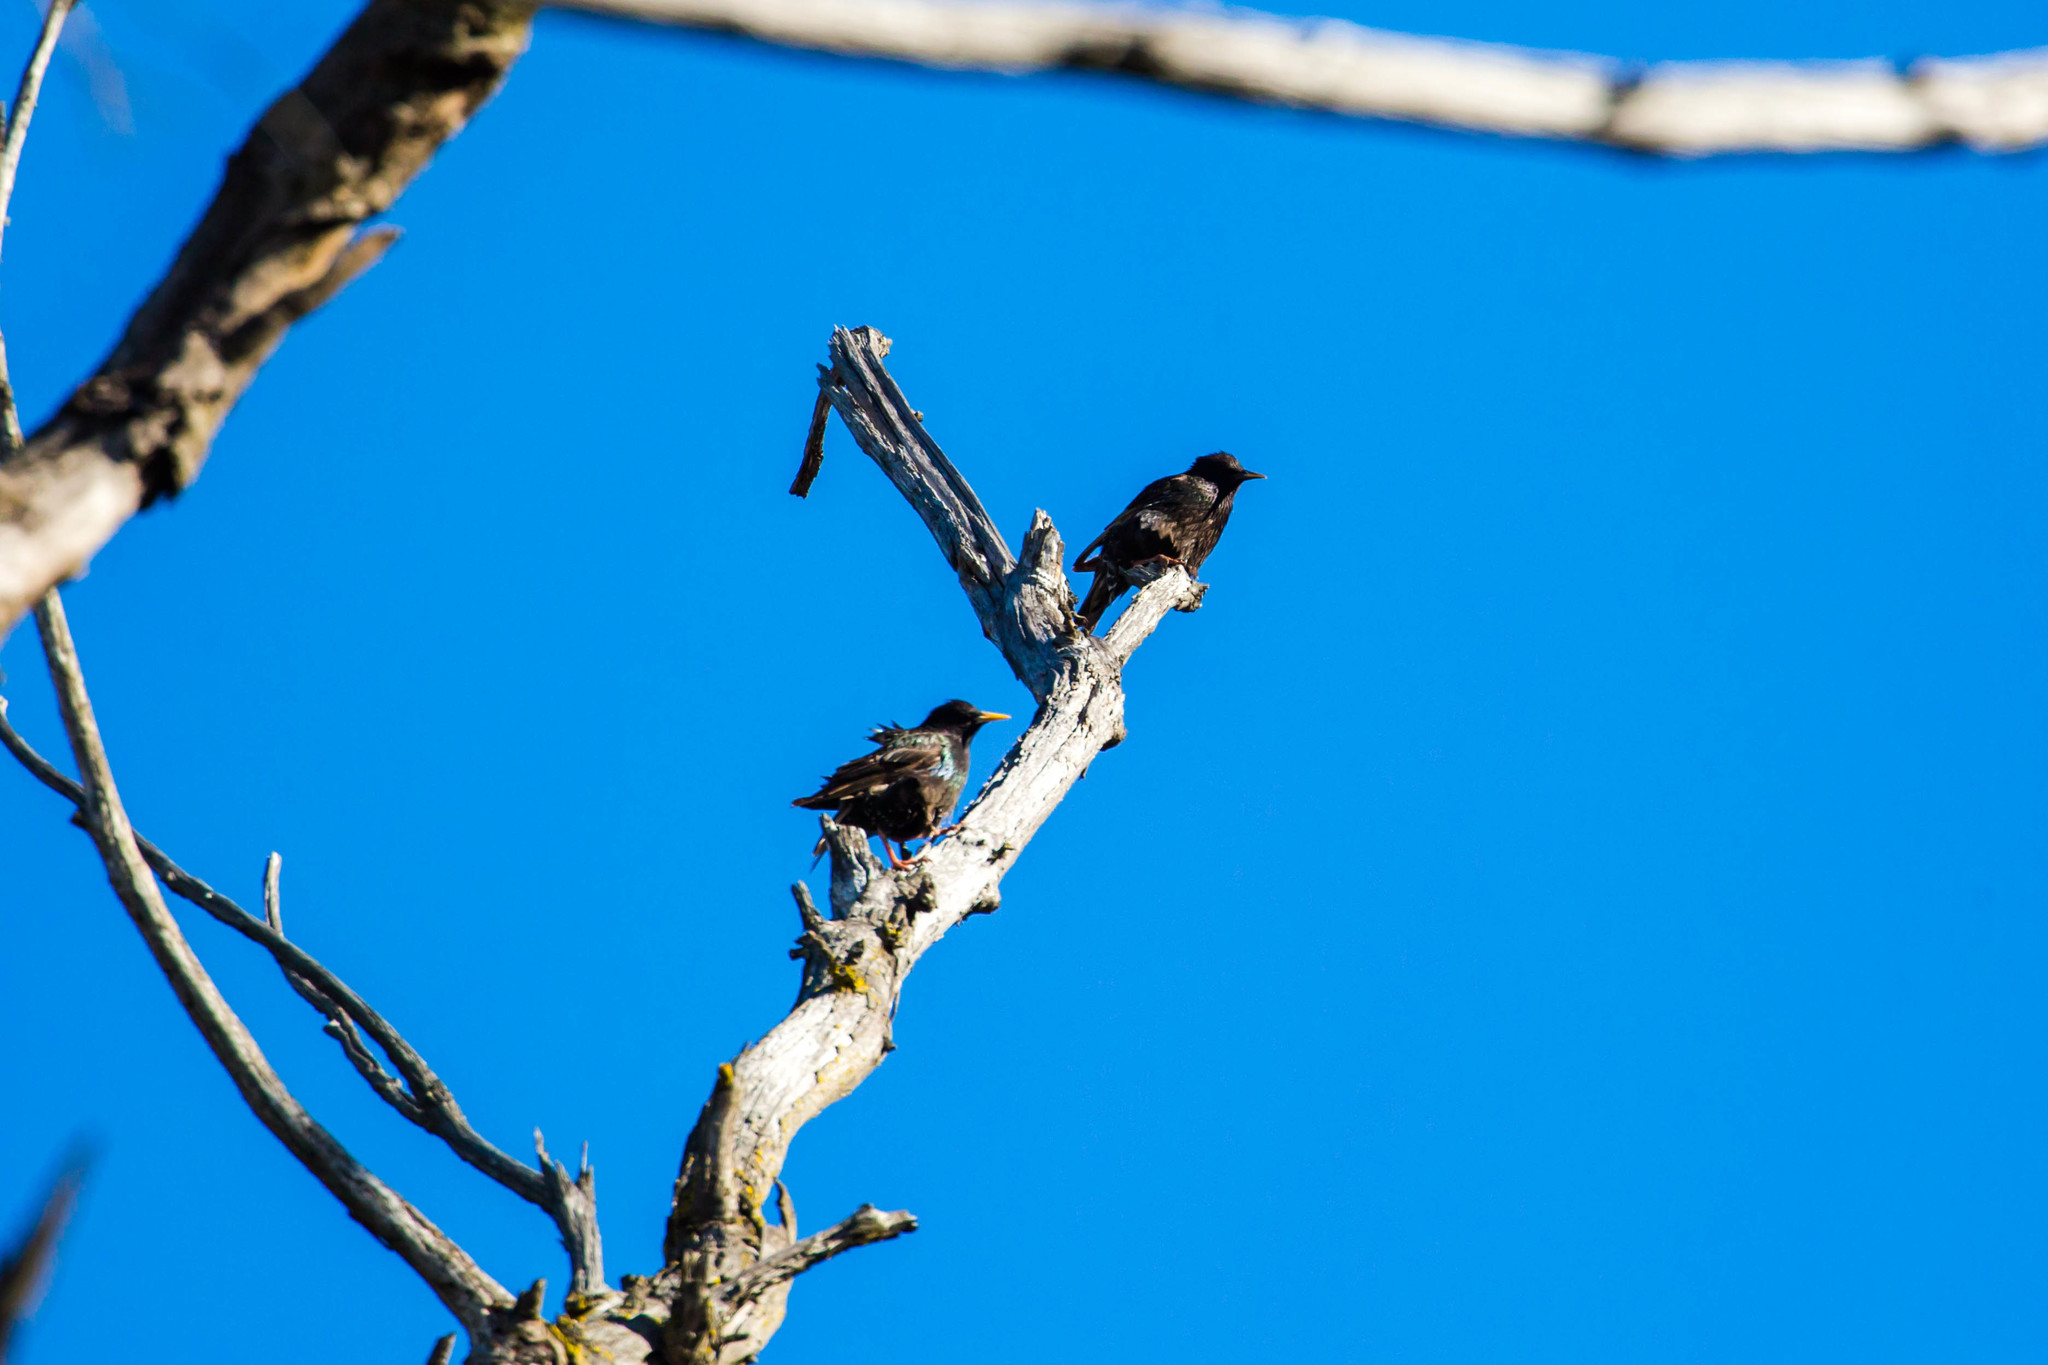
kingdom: Animalia
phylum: Chordata
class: Aves
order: Passeriformes
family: Sturnidae
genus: Sturnus
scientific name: Sturnus vulgaris
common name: Common starling
